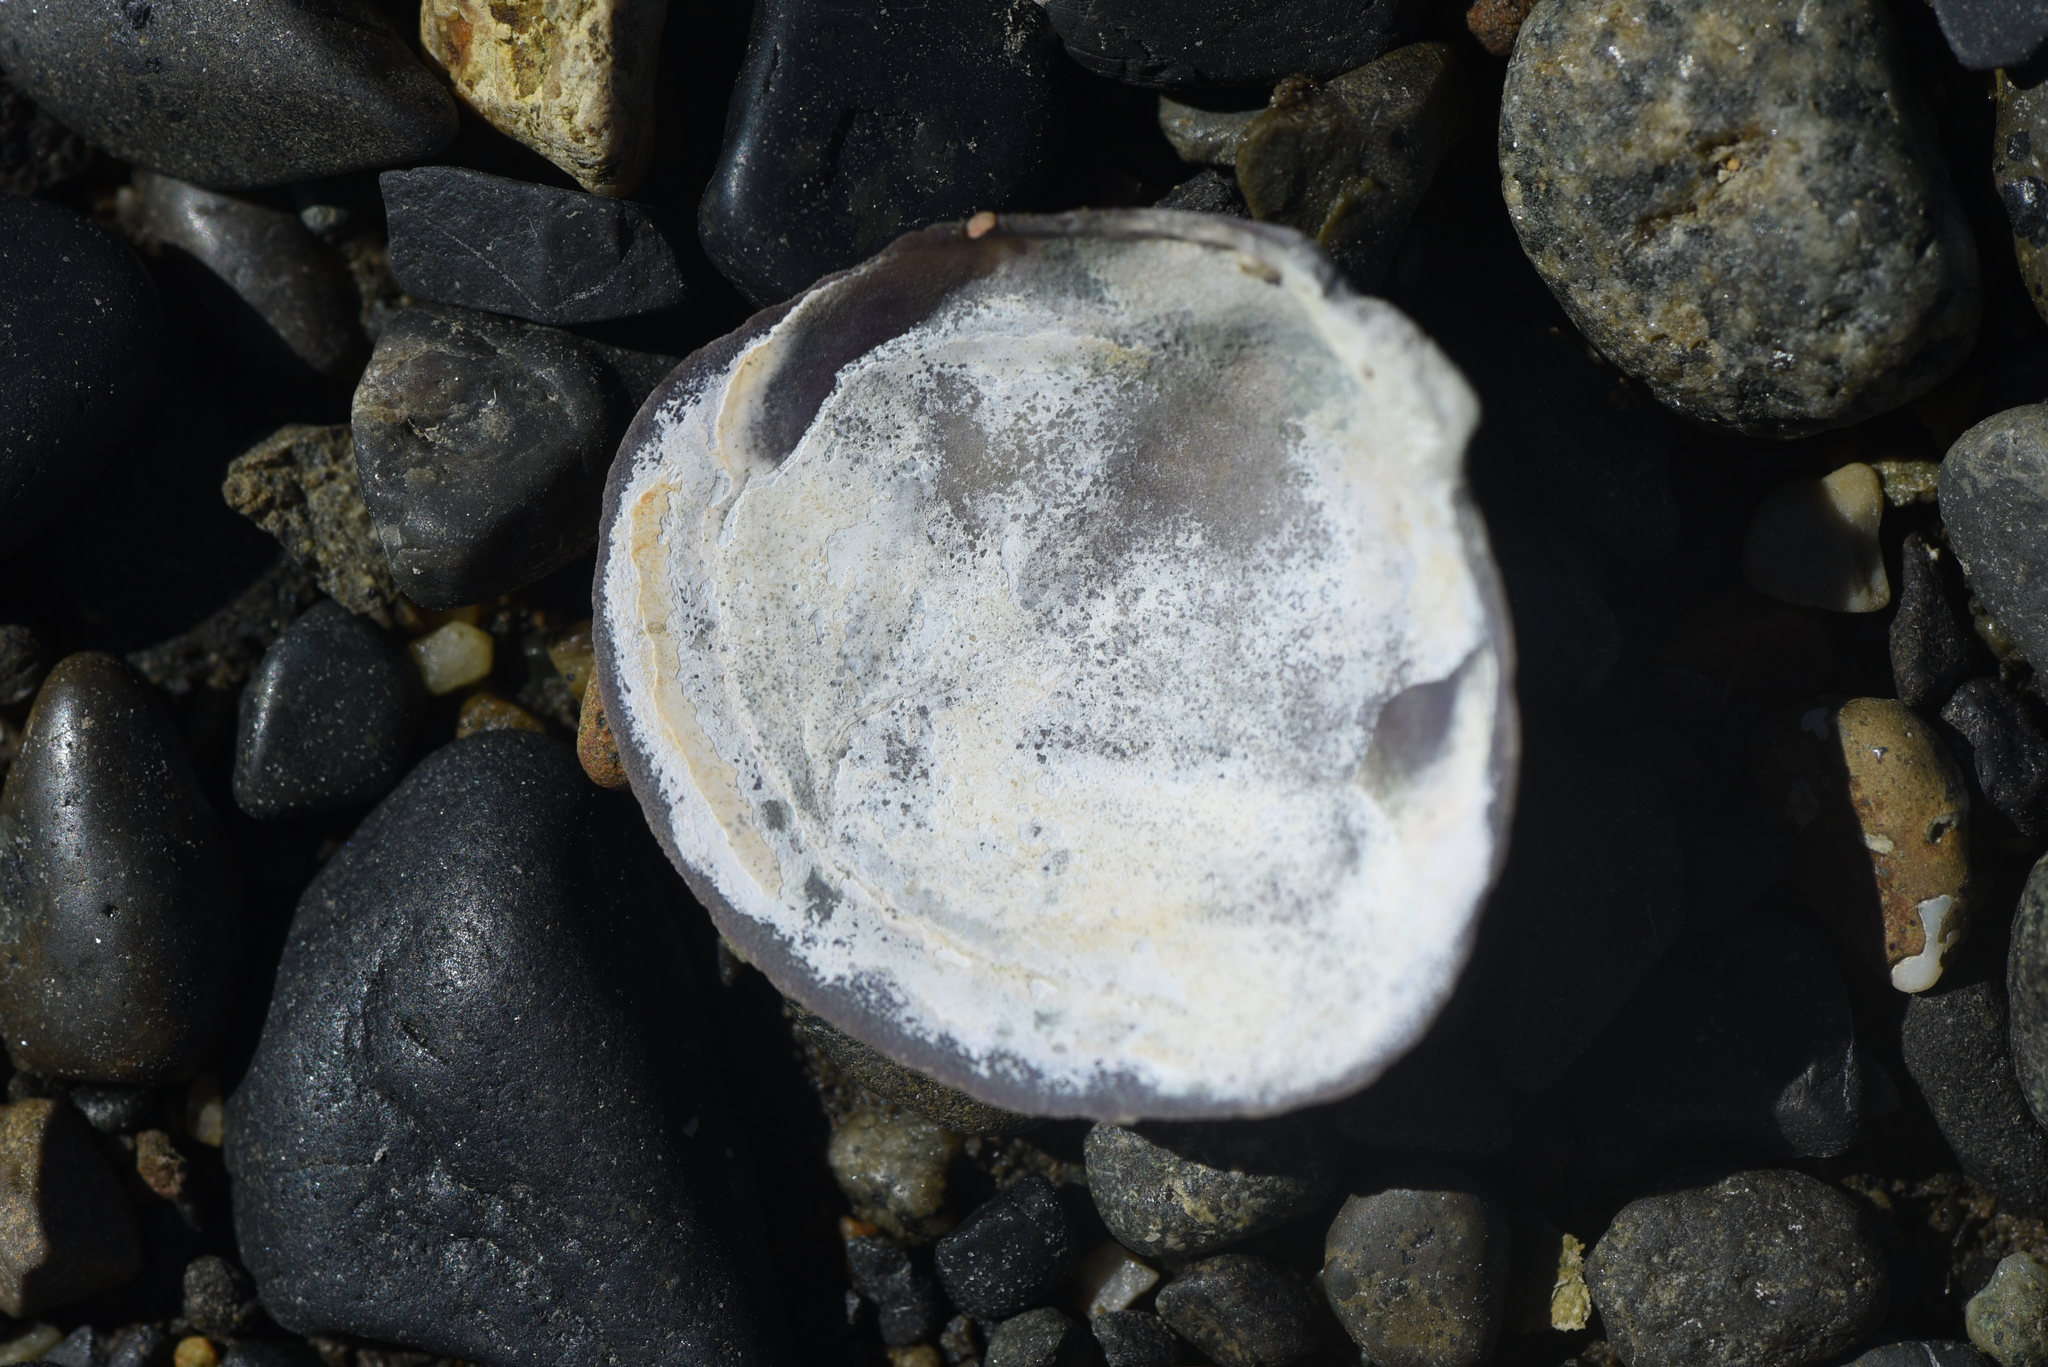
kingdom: Animalia
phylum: Mollusca
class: Bivalvia
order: Cardiida
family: Psammobiidae
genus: Nuttallia
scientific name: Nuttallia obscurata
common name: Purple mahogany-clam
